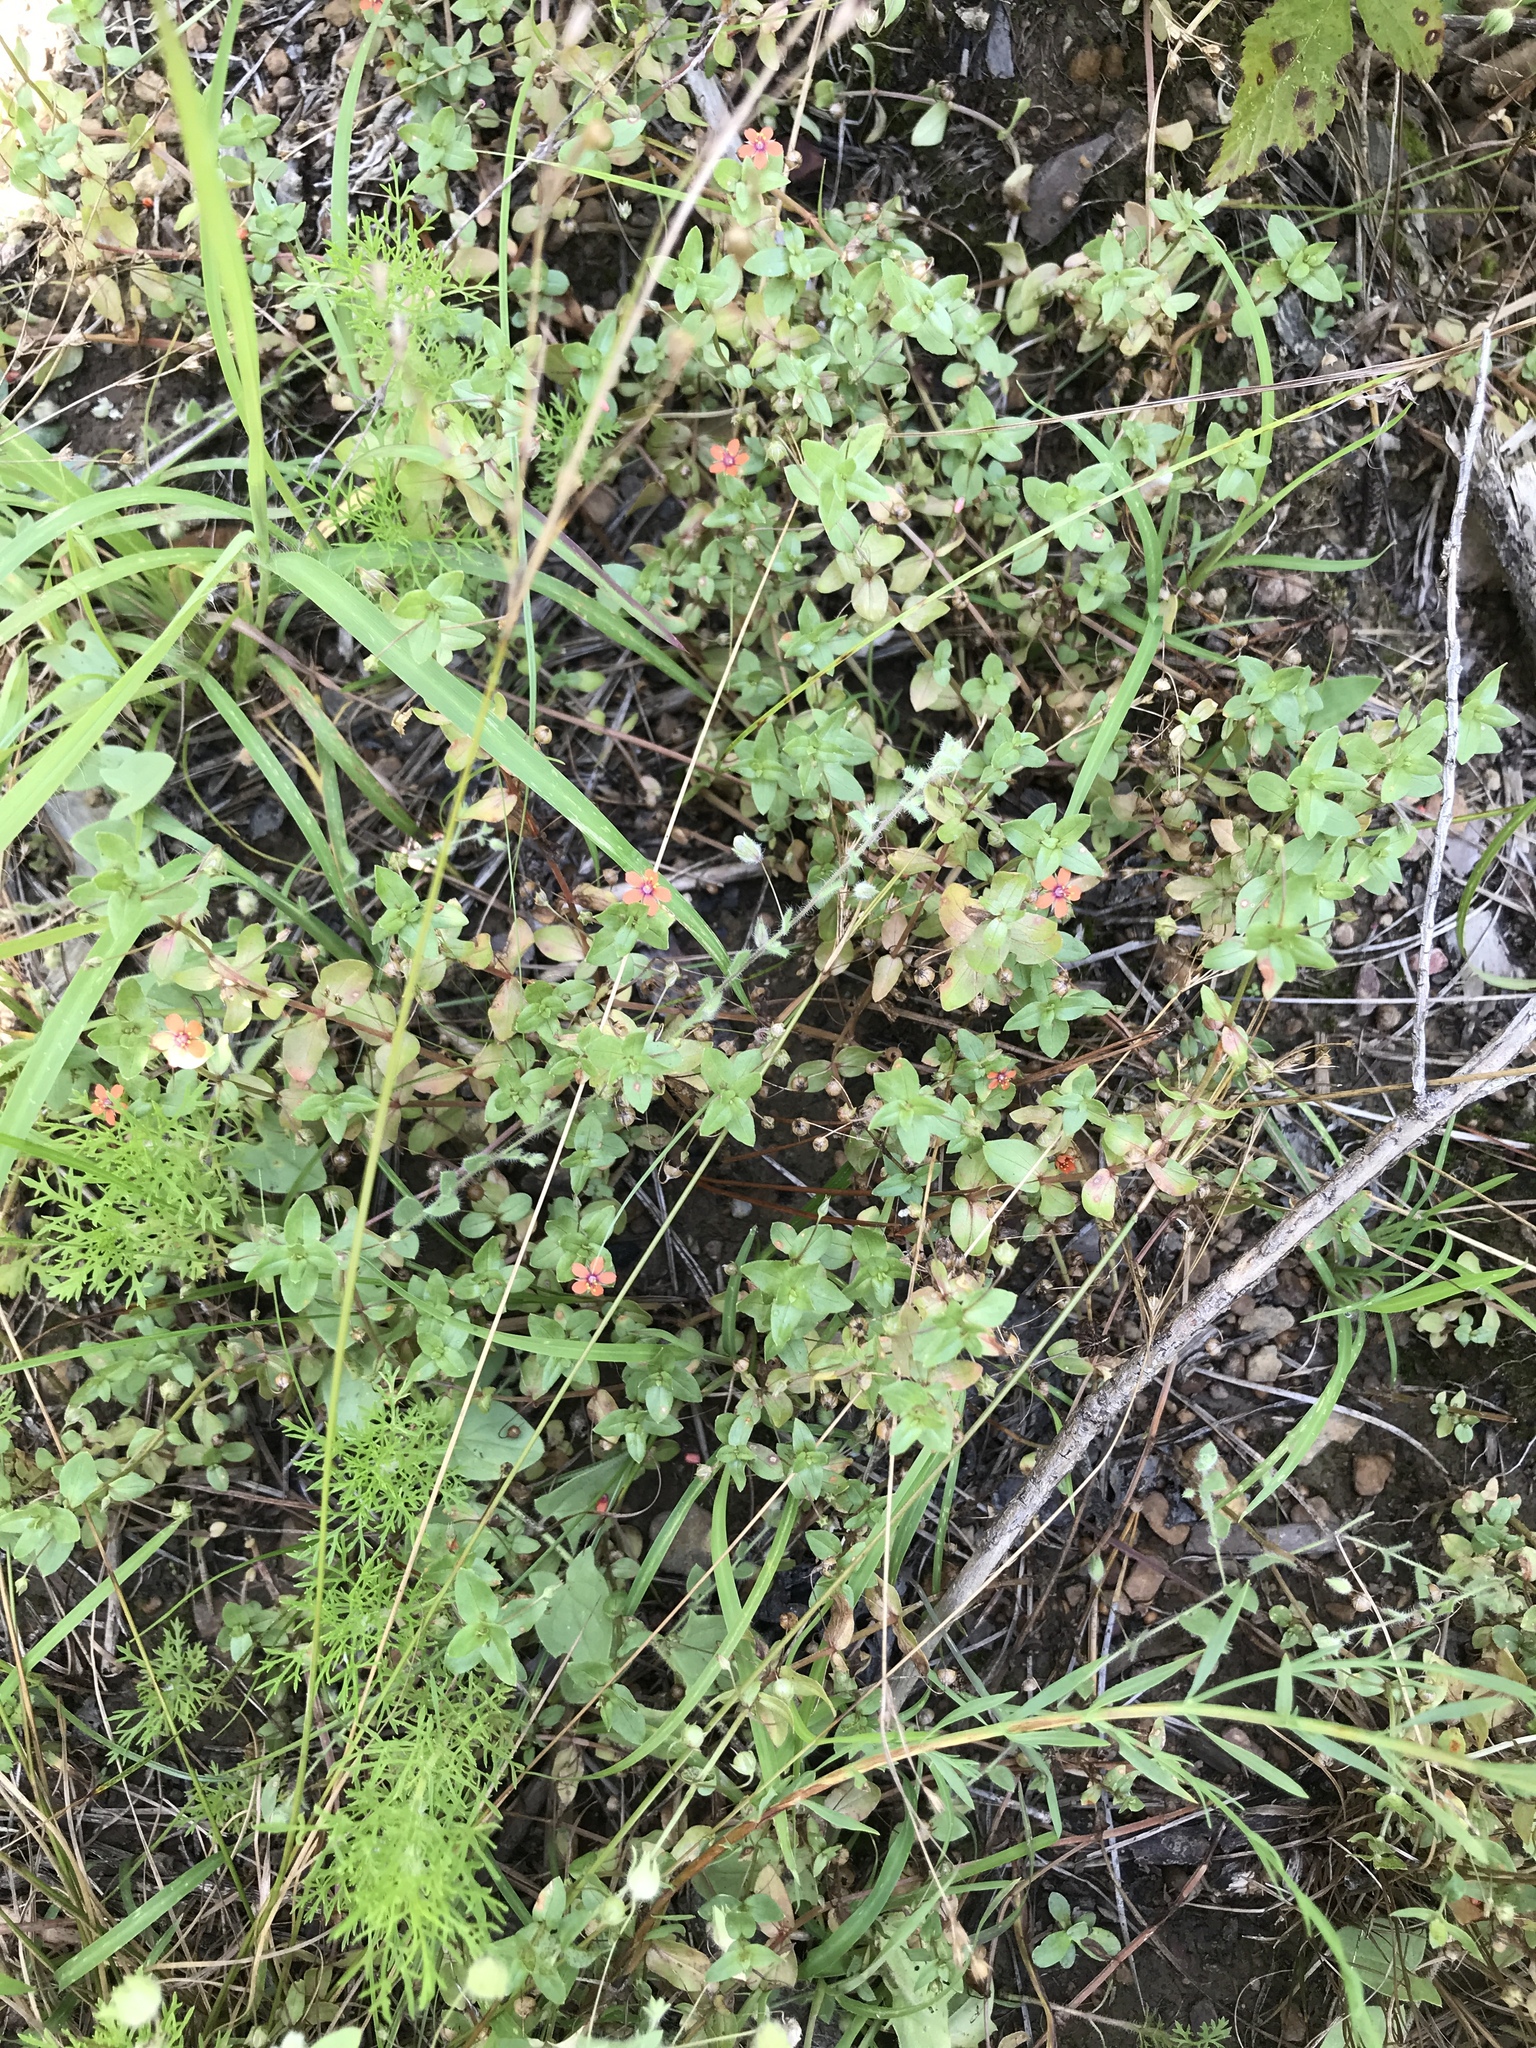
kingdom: Plantae
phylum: Tracheophyta
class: Magnoliopsida
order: Ericales
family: Primulaceae
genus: Lysimachia
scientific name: Lysimachia arvensis
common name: Scarlet pimpernel
